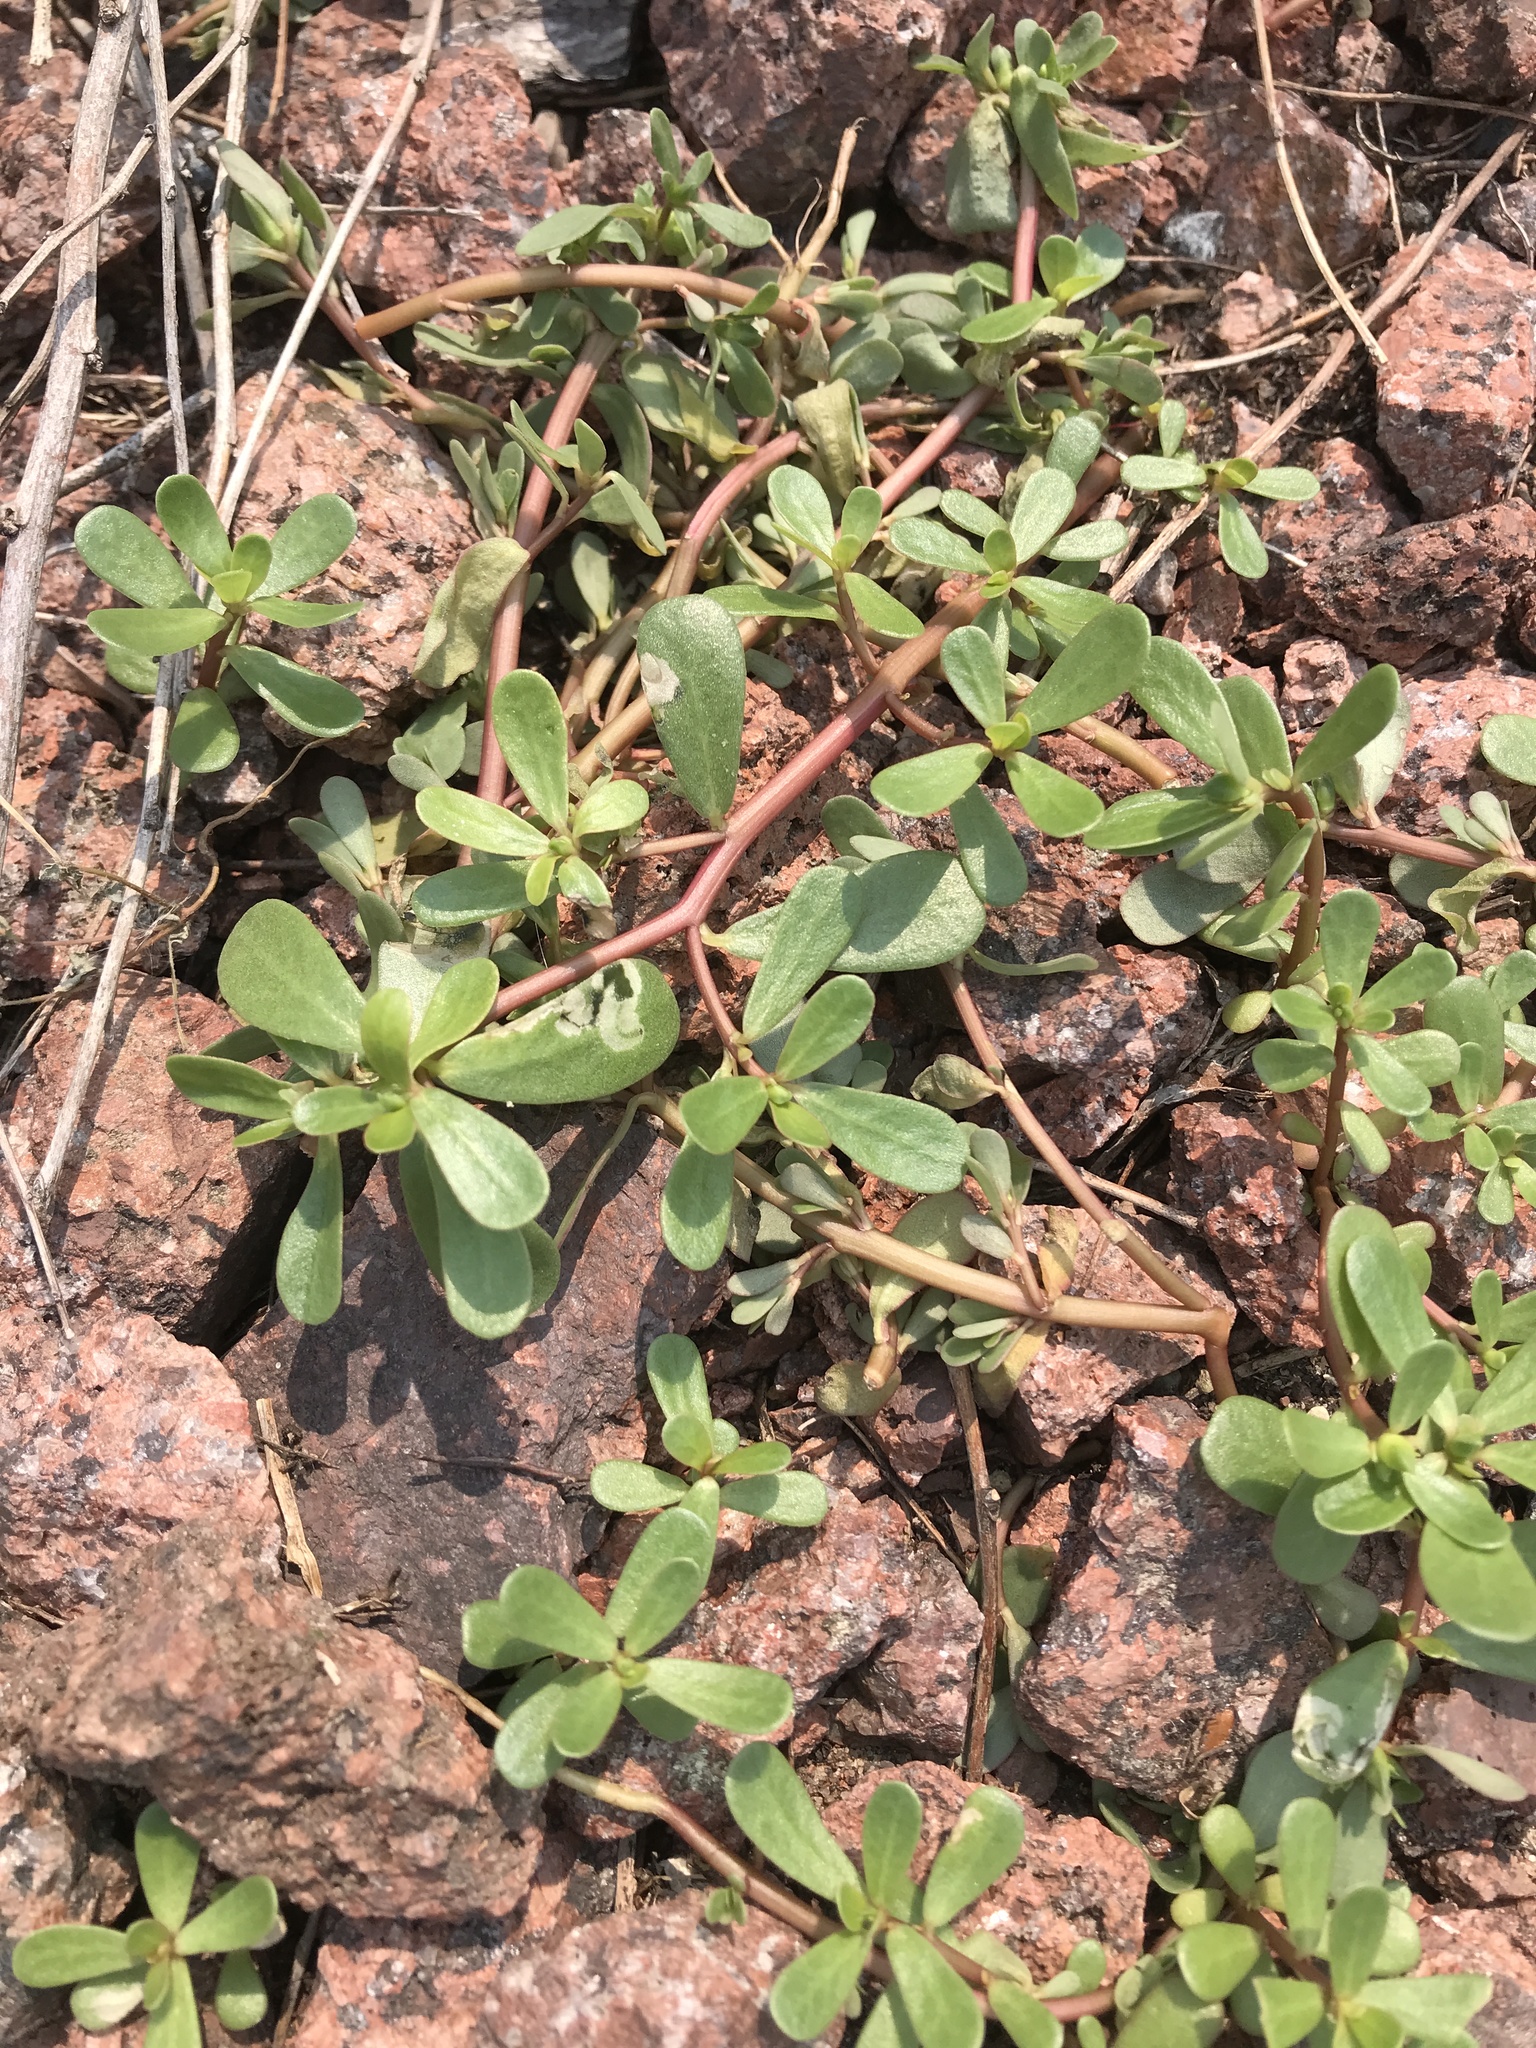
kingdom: Plantae
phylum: Tracheophyta
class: Magnoliopsida
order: Caryophyllales
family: Portulacaceae
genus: Portulaca
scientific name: Portulaca oleracea
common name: Common purslane
